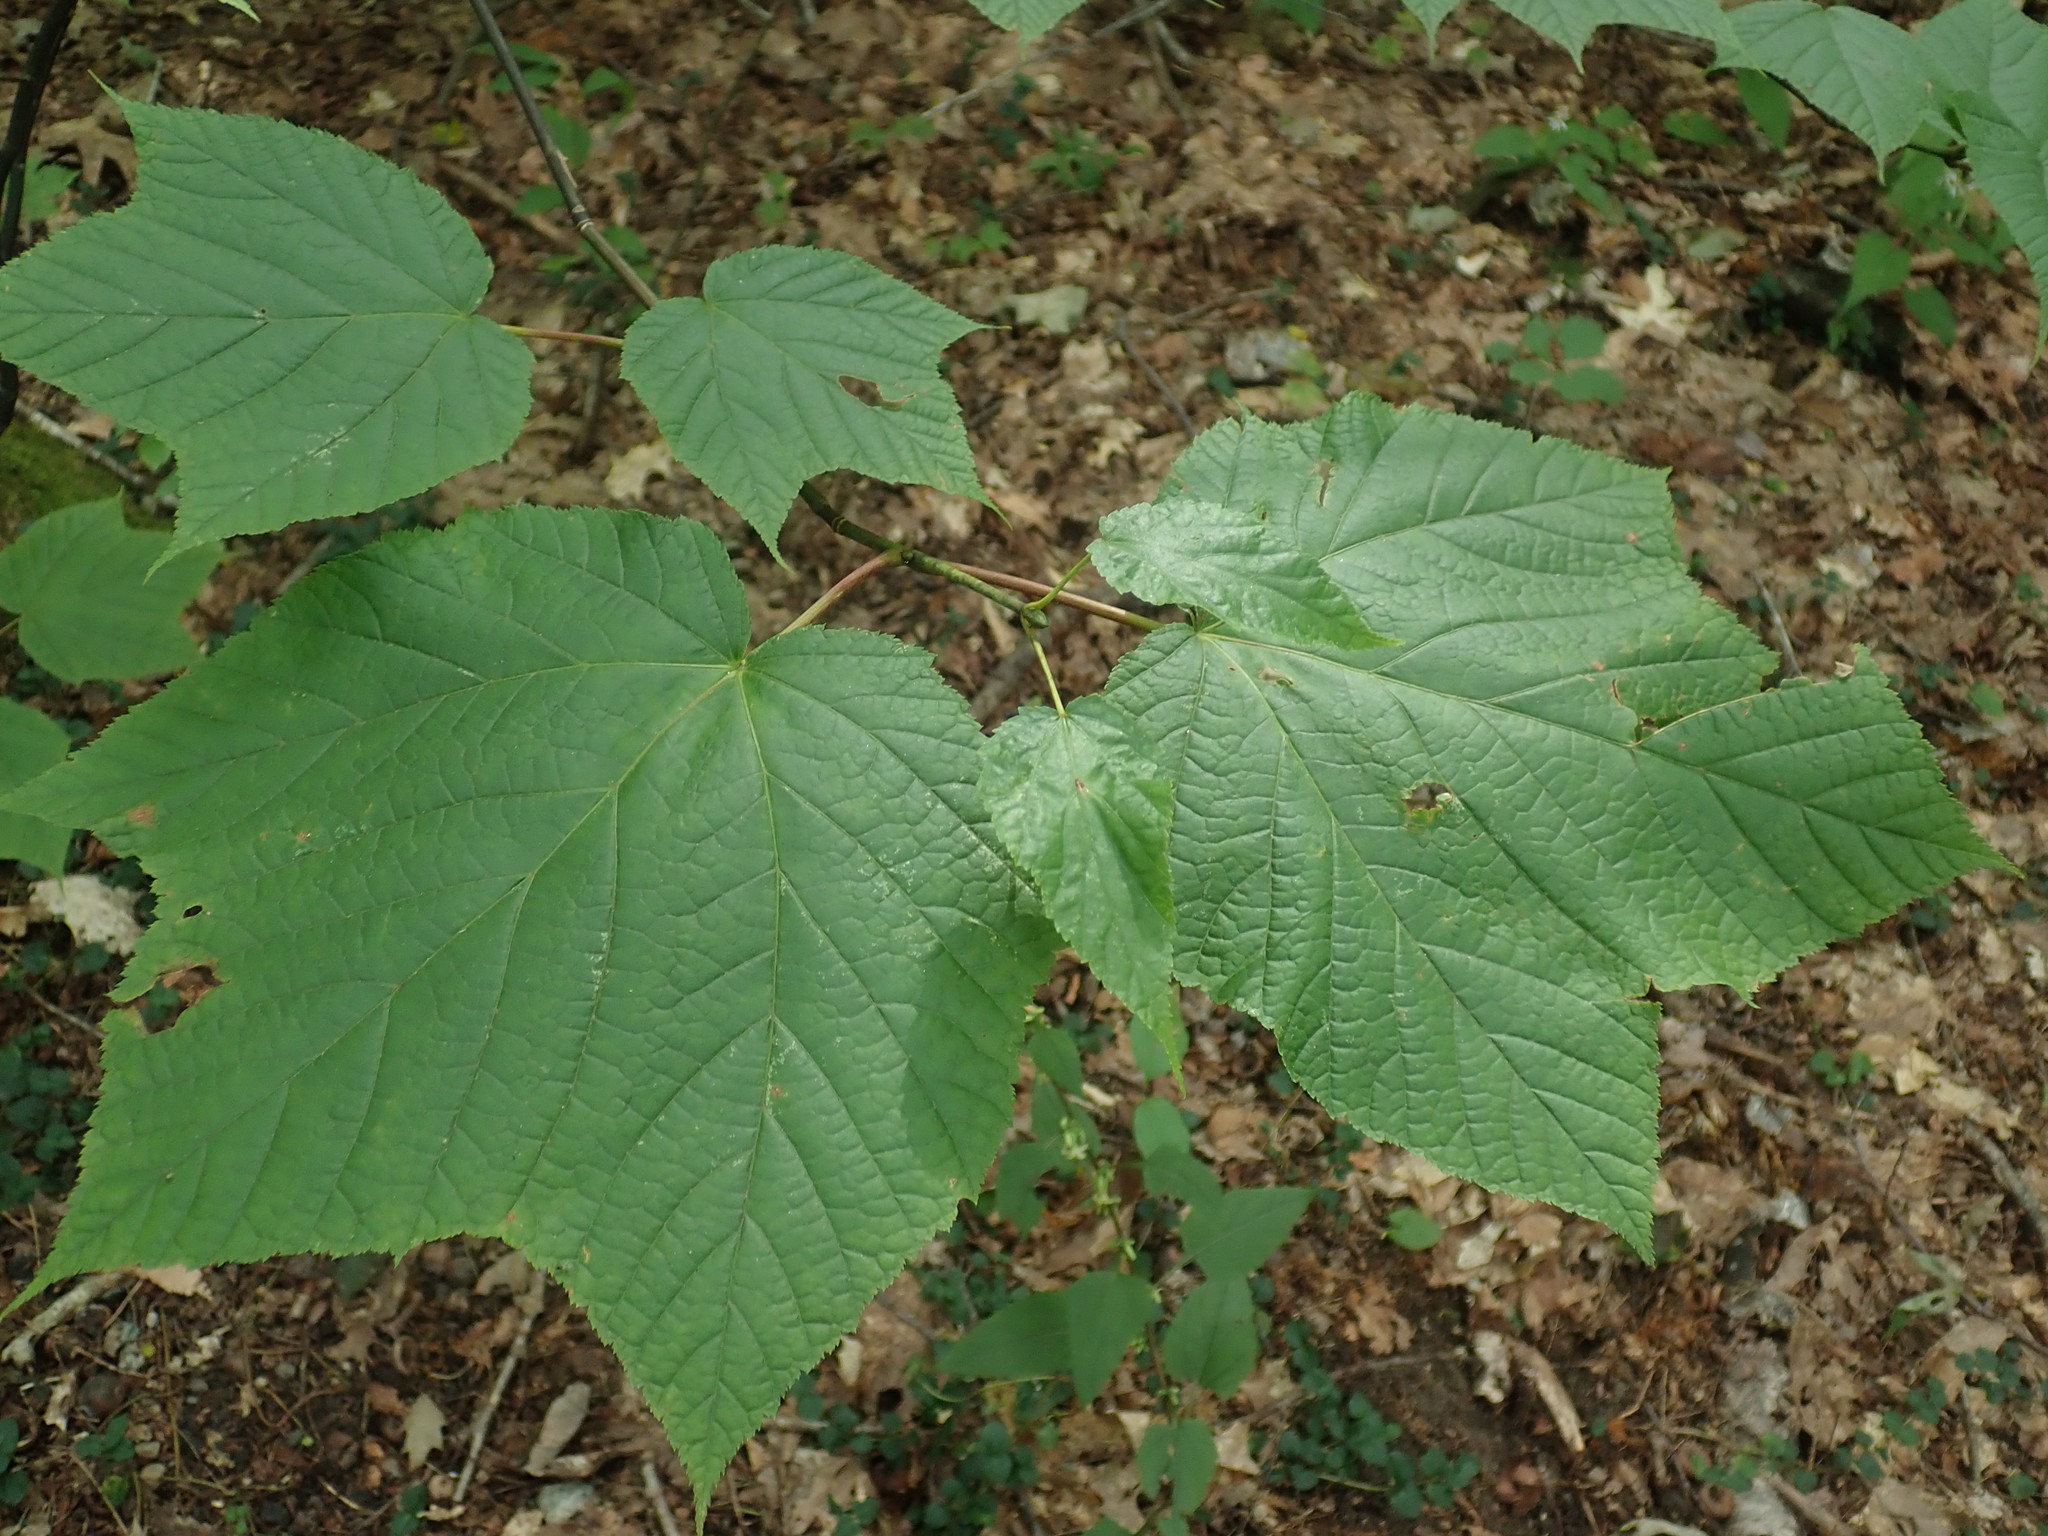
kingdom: Plantae
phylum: Tracheophyta
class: Magnoliopsida
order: Sapindales
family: Sapindaceae
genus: Acer
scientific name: Acer pensylvanicum
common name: Moosewood
